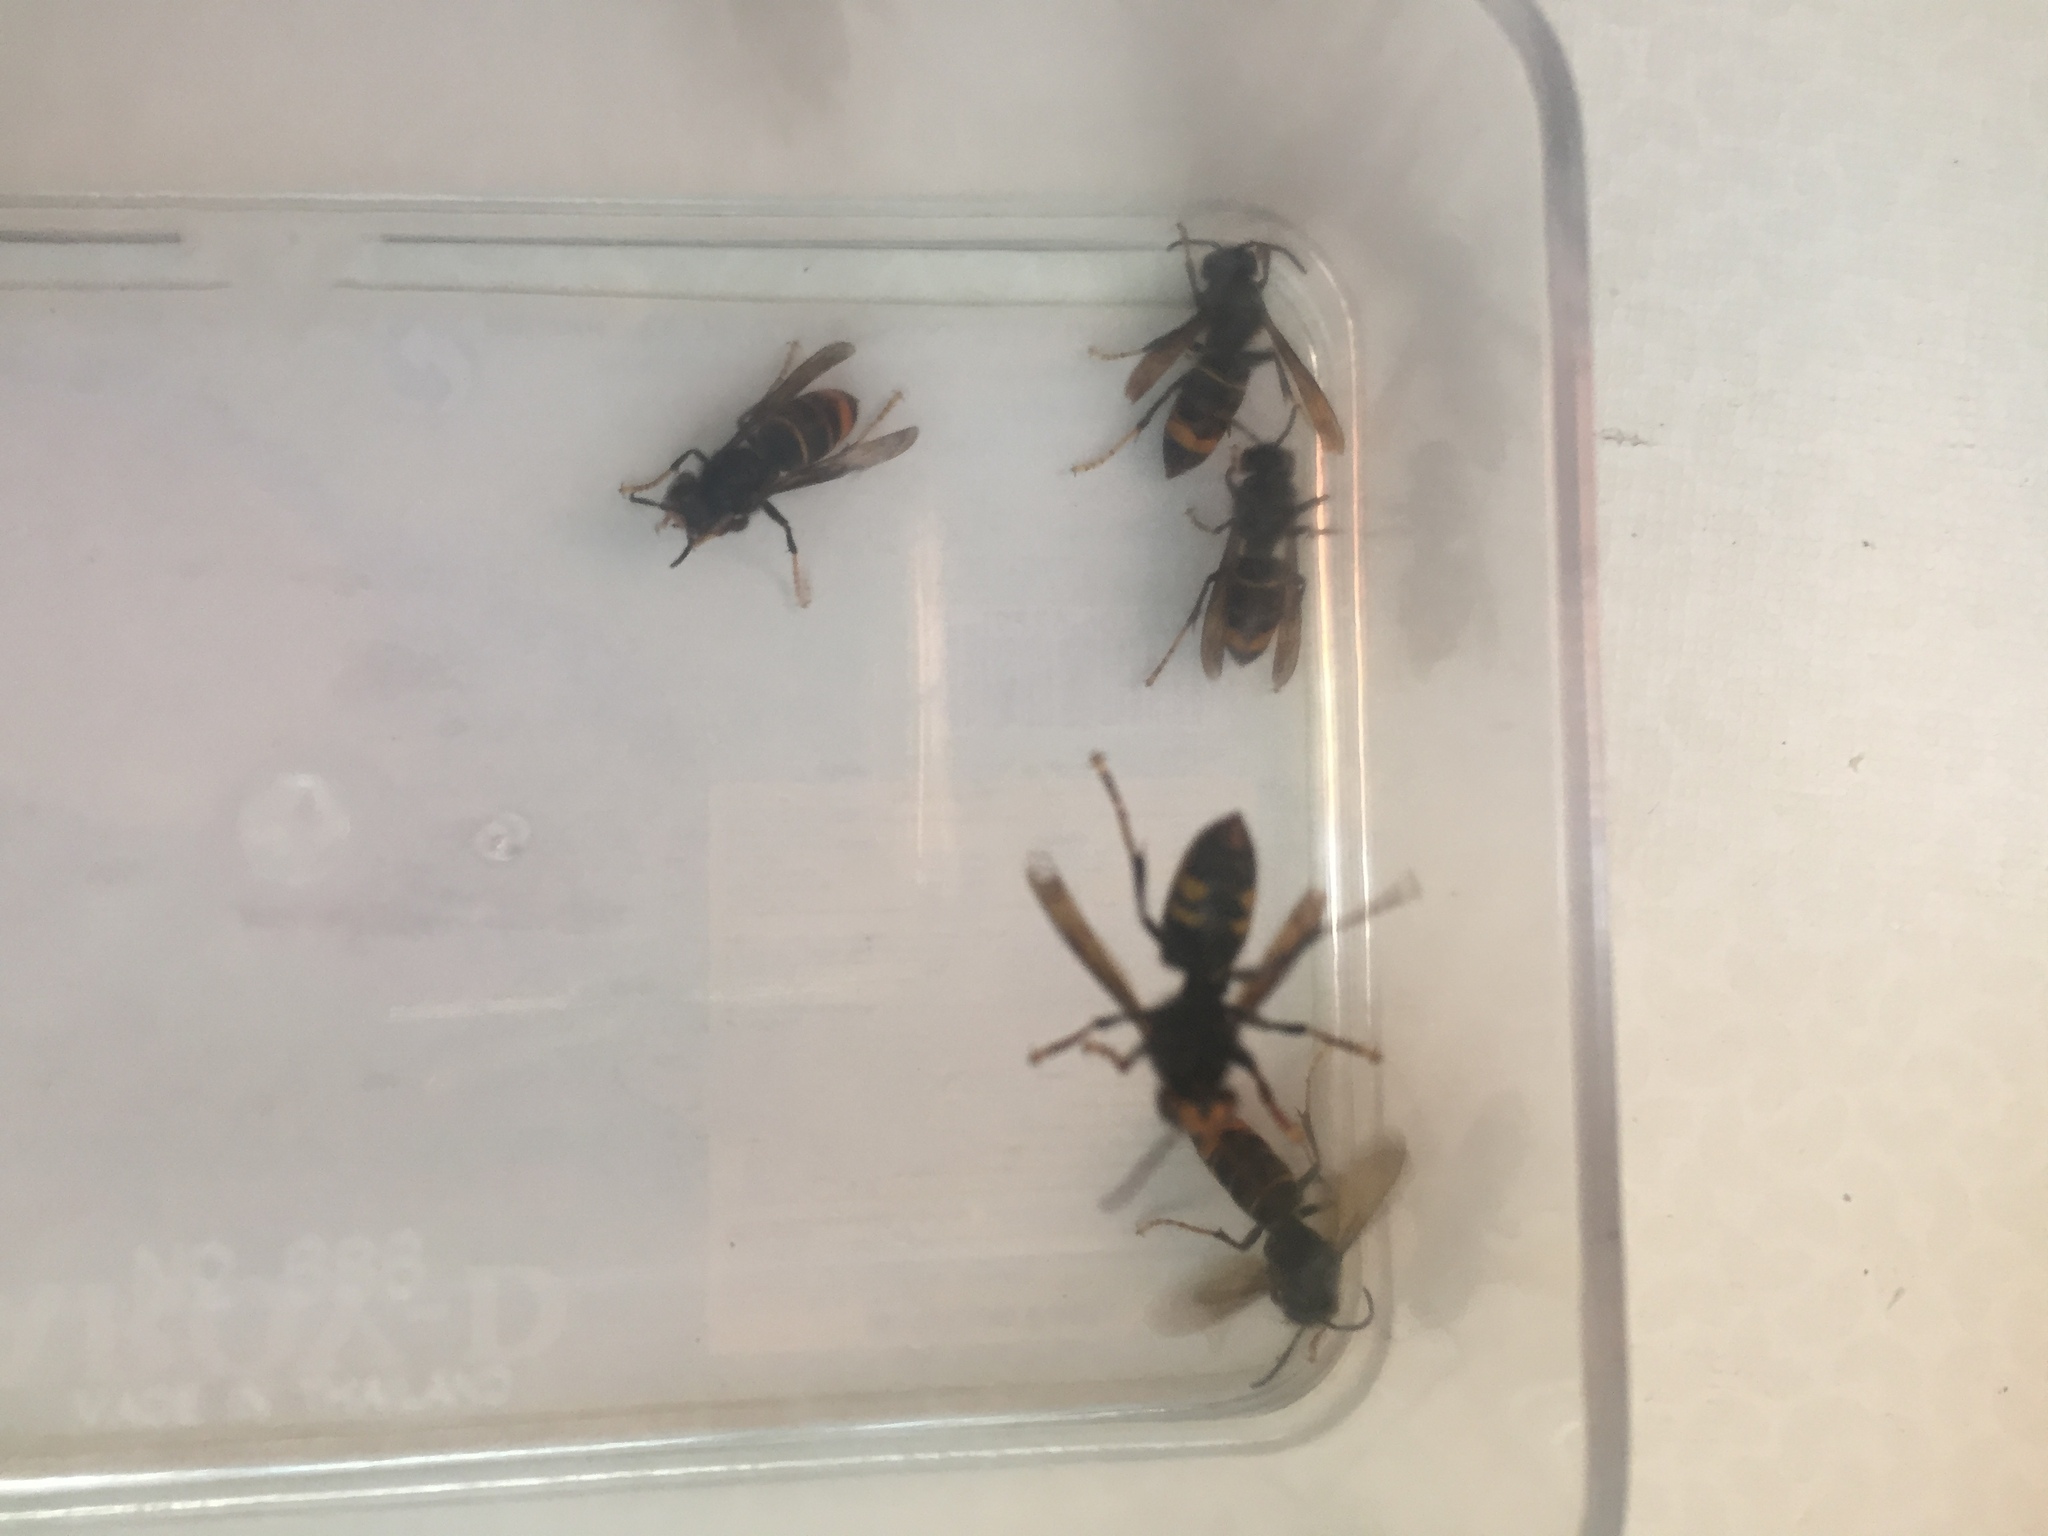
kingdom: Animalia
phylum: Arthropoda
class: Insecta
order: Hymenoptera
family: Vespidae
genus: Vespa
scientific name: Vespa velutina
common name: Asian hornet
